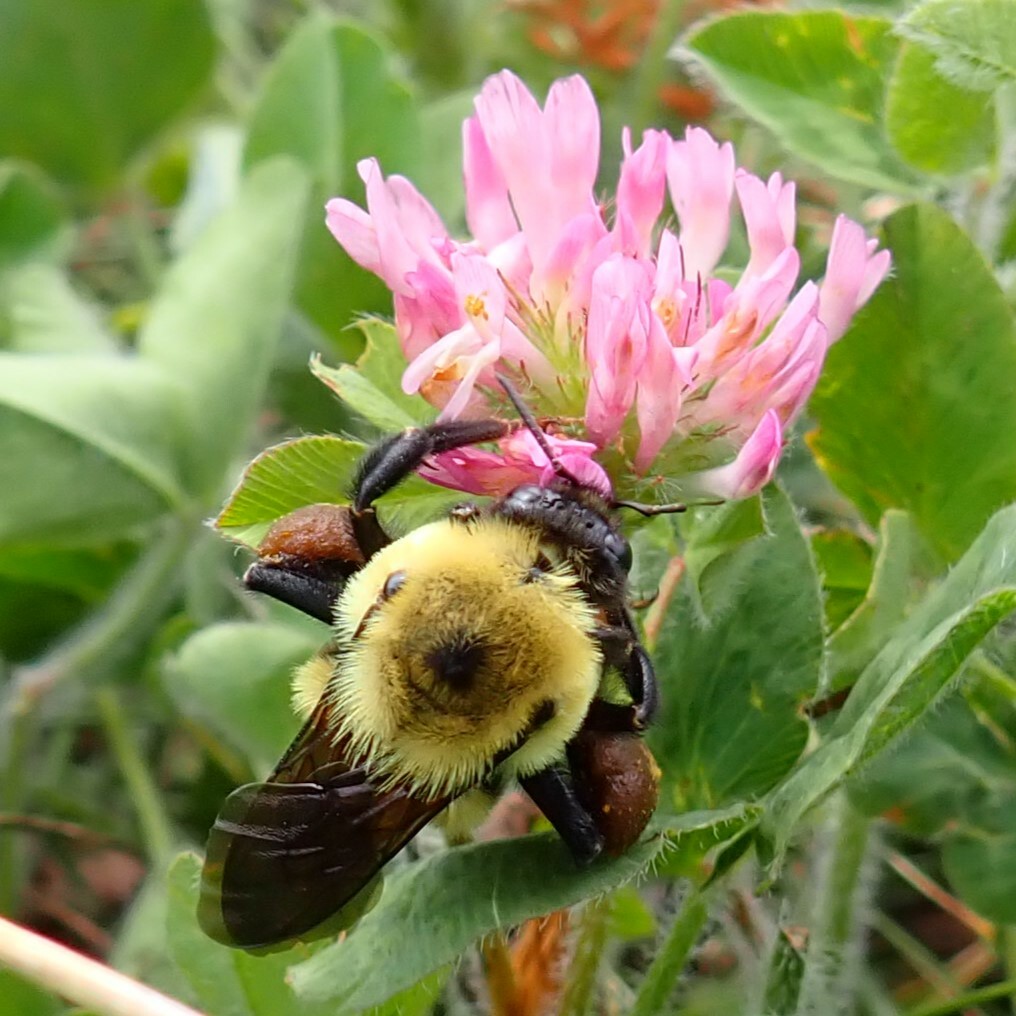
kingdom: Animalia
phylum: Arthropoda
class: Insecta
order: Hymenoptera
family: Apidae
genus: Bombus
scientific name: Bombus griseocollis
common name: Brown-belted bumble bee
